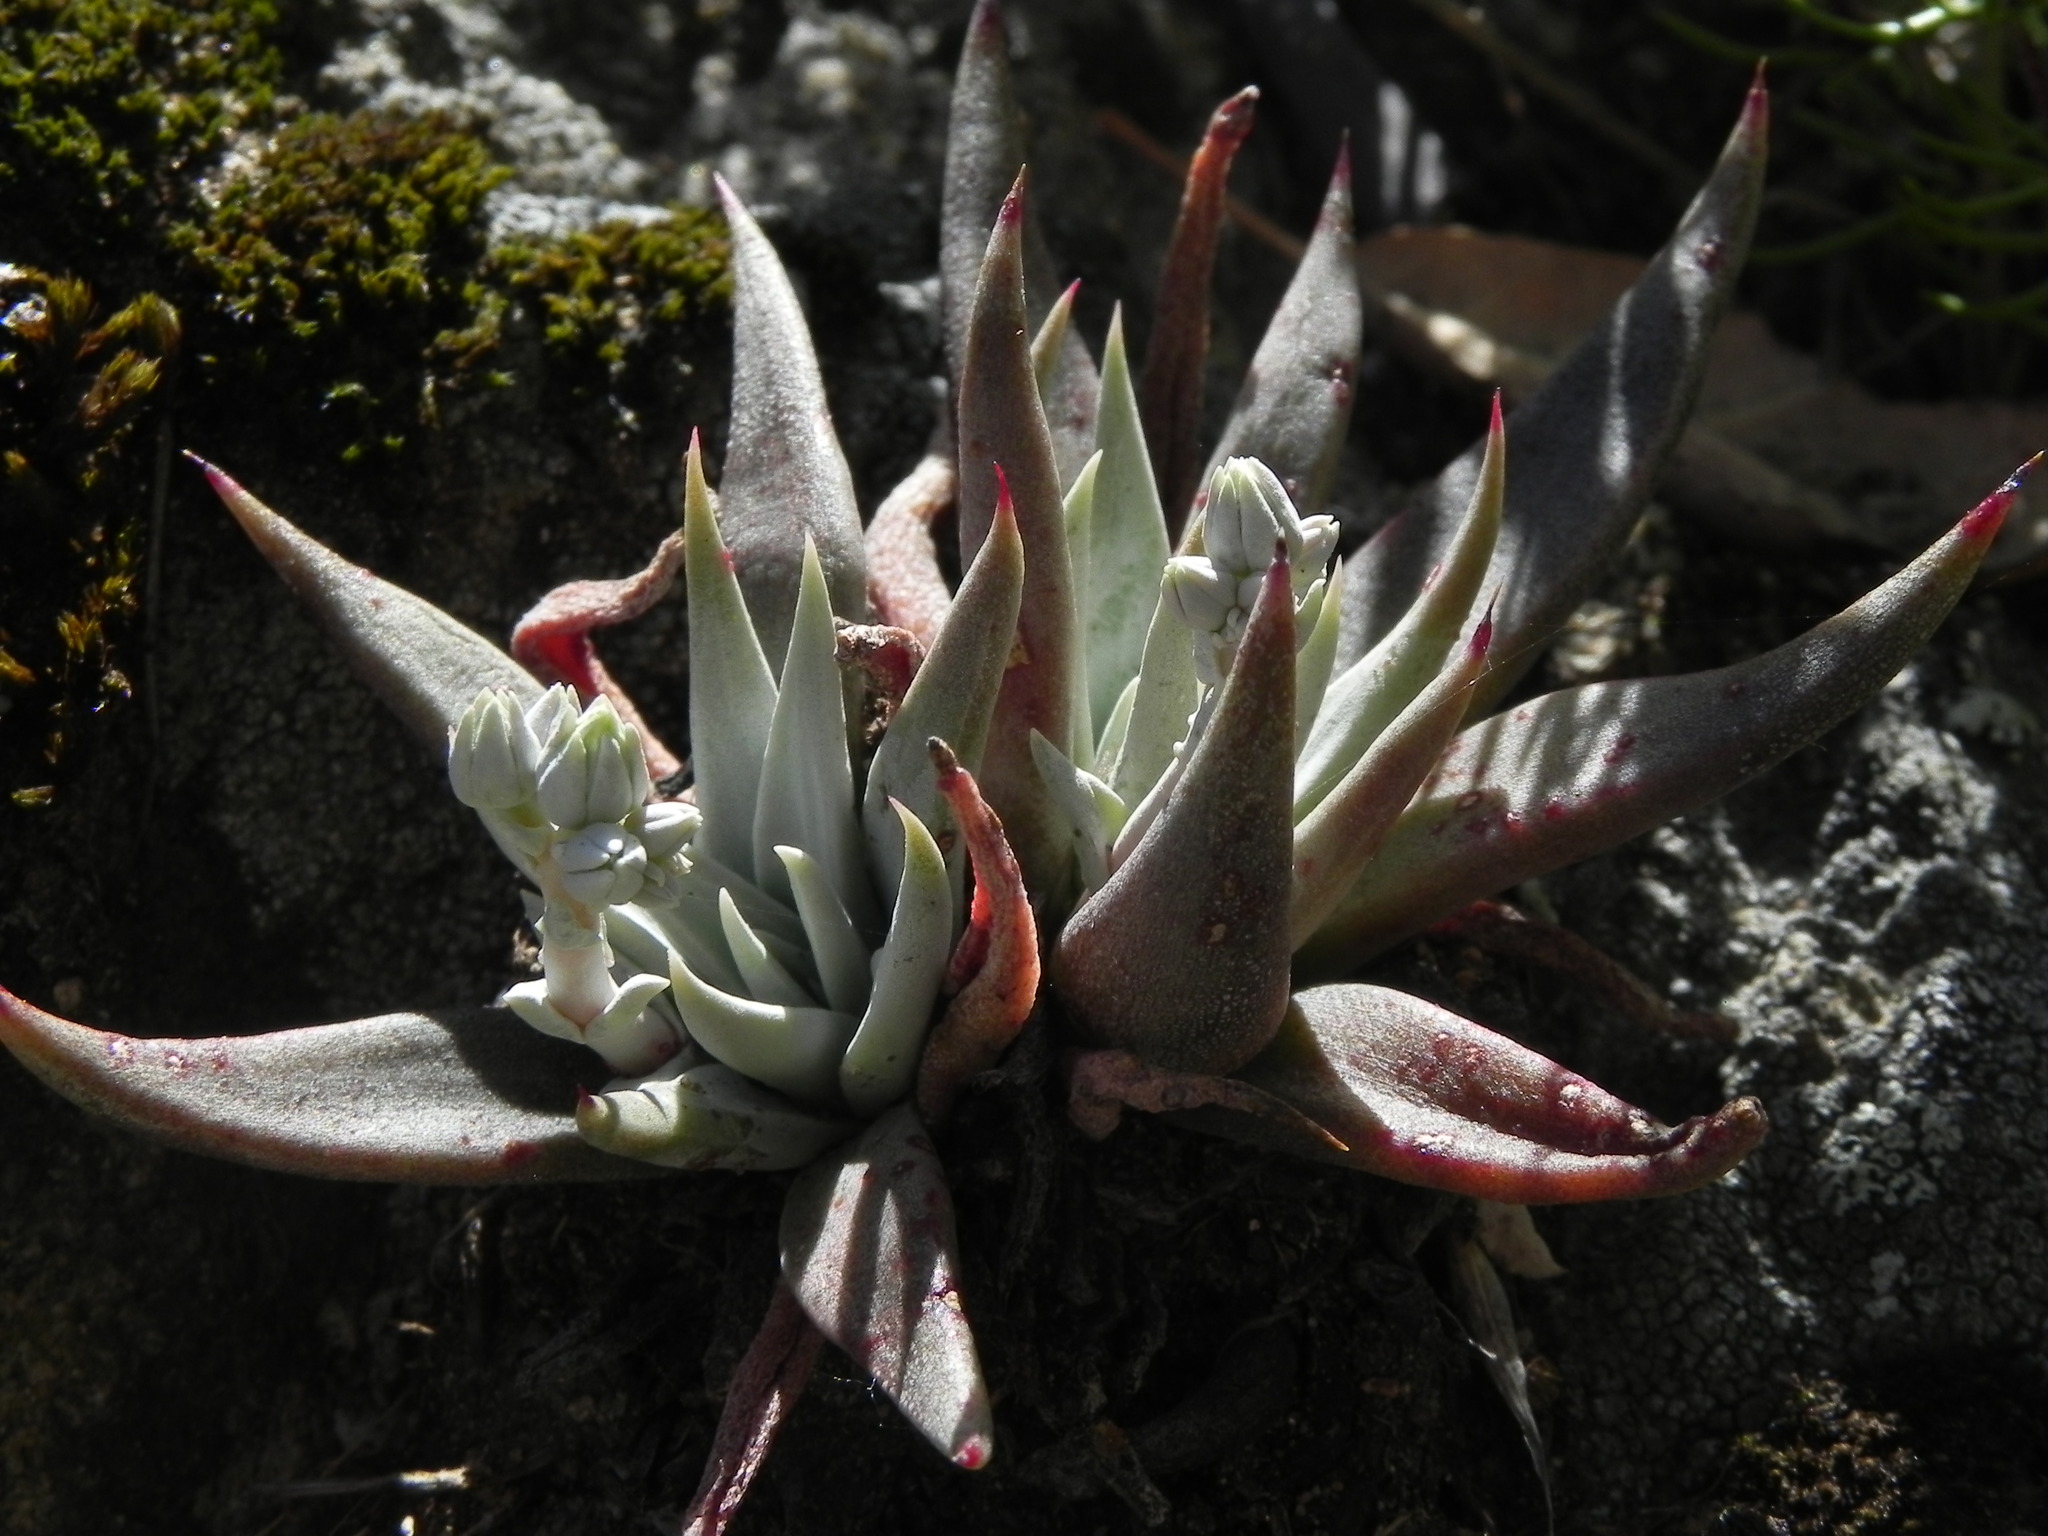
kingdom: Plantae
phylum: Tracheophyta
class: Magnoliopsida
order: Saxifragales
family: Crassulaceae
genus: Dudleya
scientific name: Dudleya abramsii
